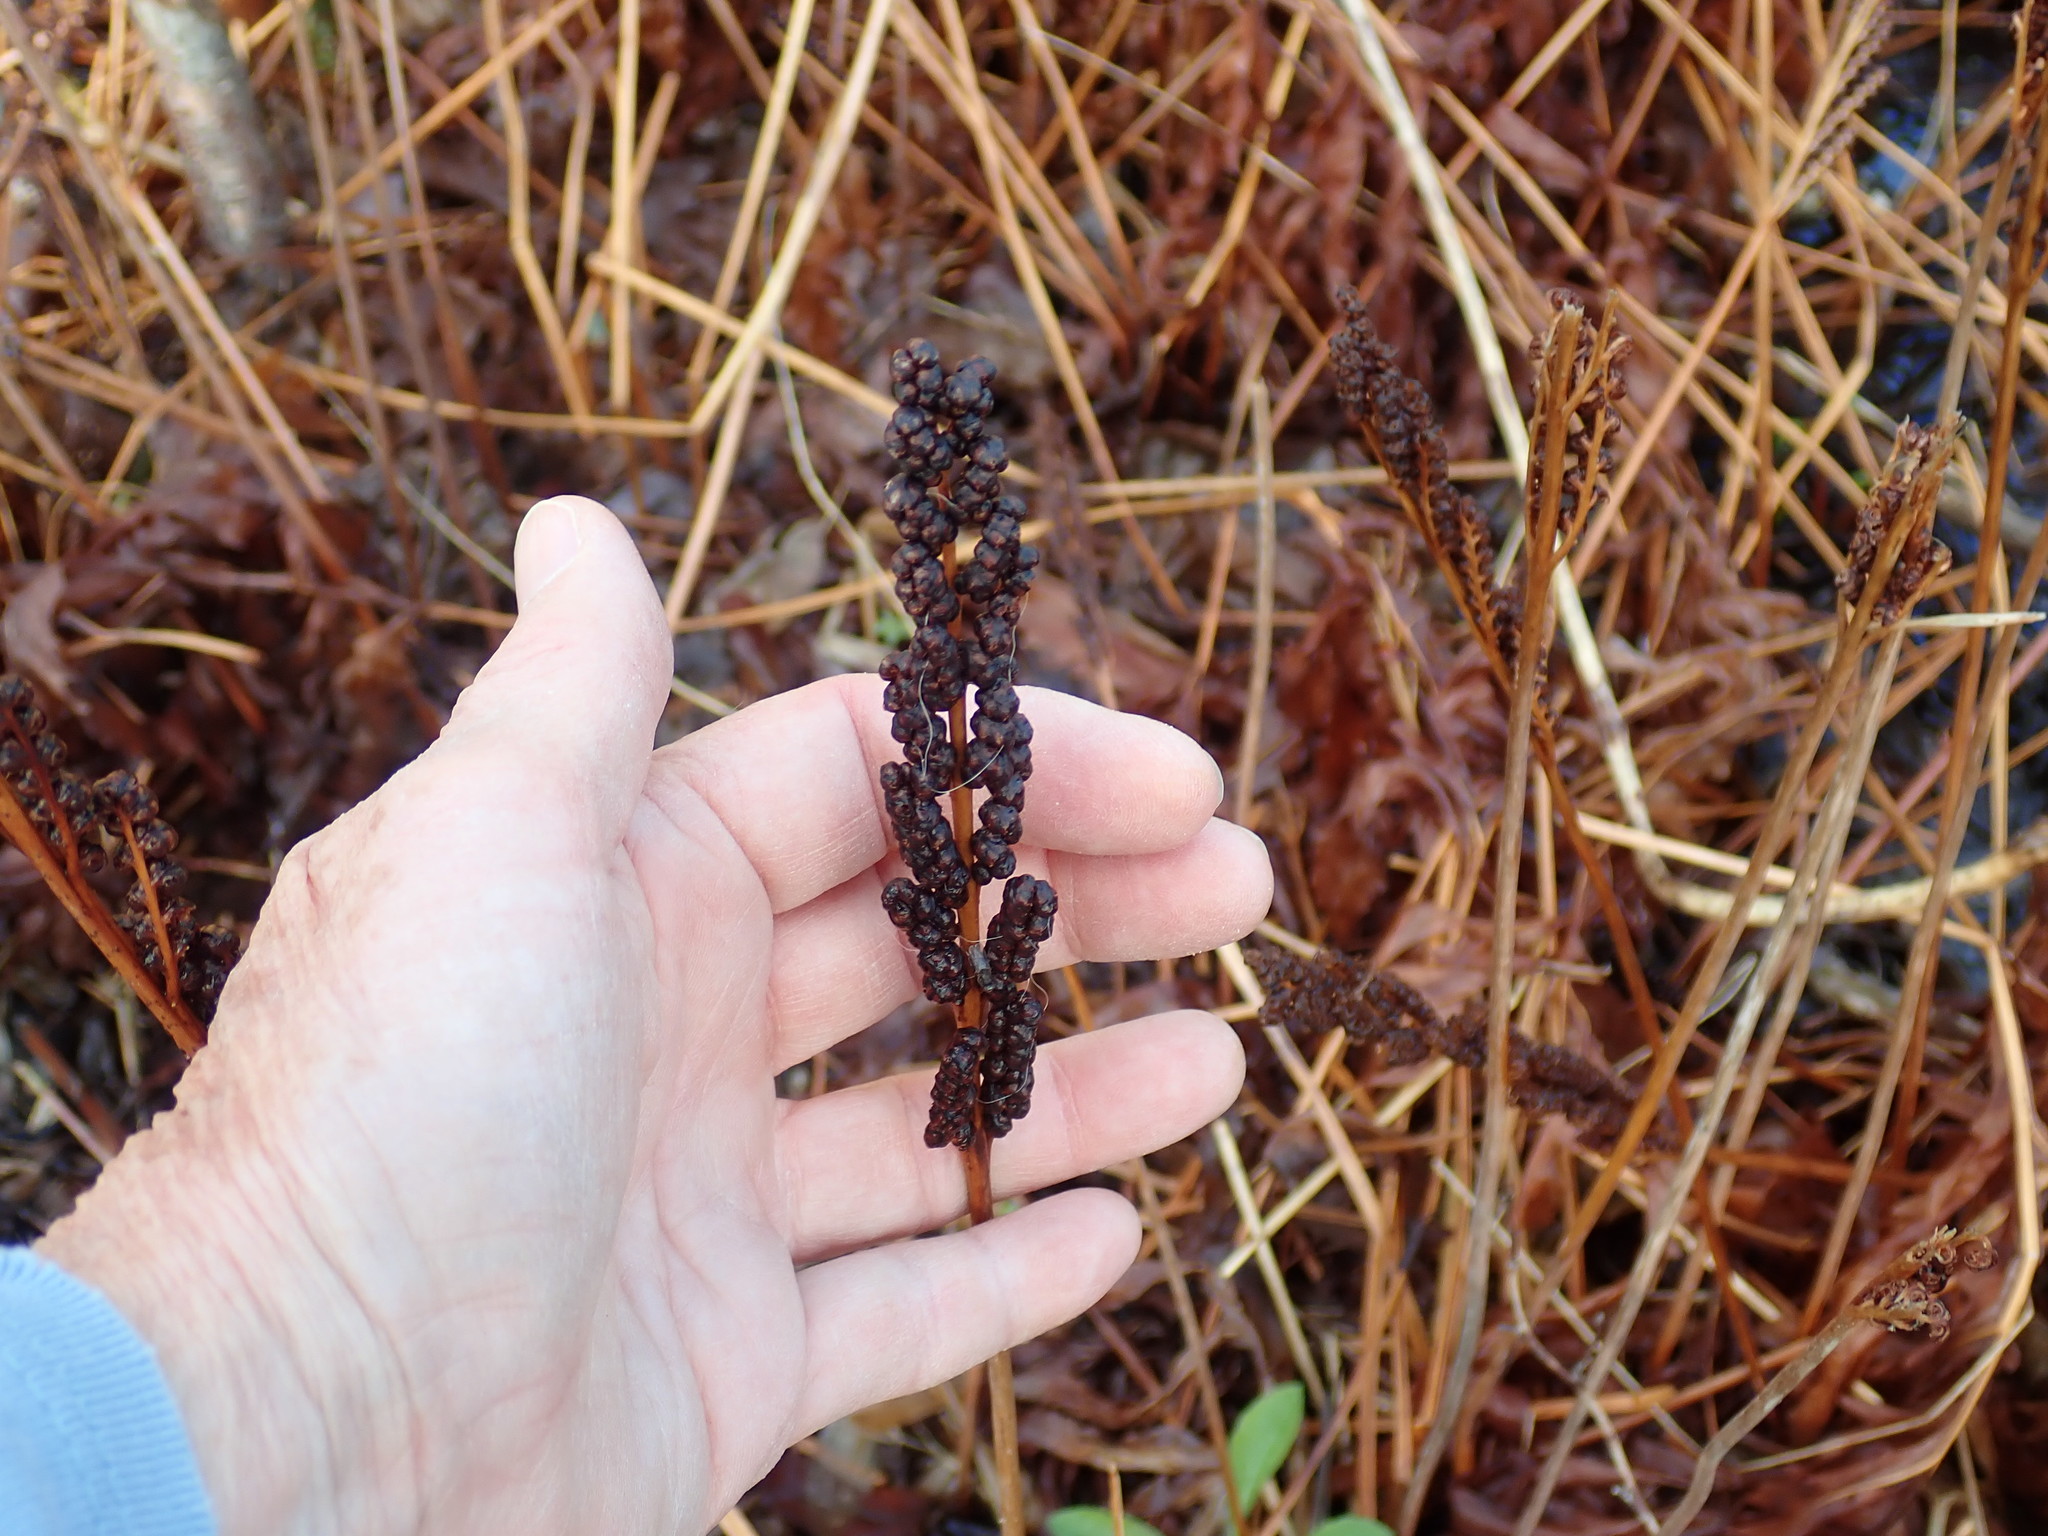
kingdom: Plantae
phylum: Tracheophyta
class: Polypodiopsida
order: Polypodiales
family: Onocleaceae
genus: Onoclea
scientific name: Onoclea sensibilis
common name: Sensitive fern
